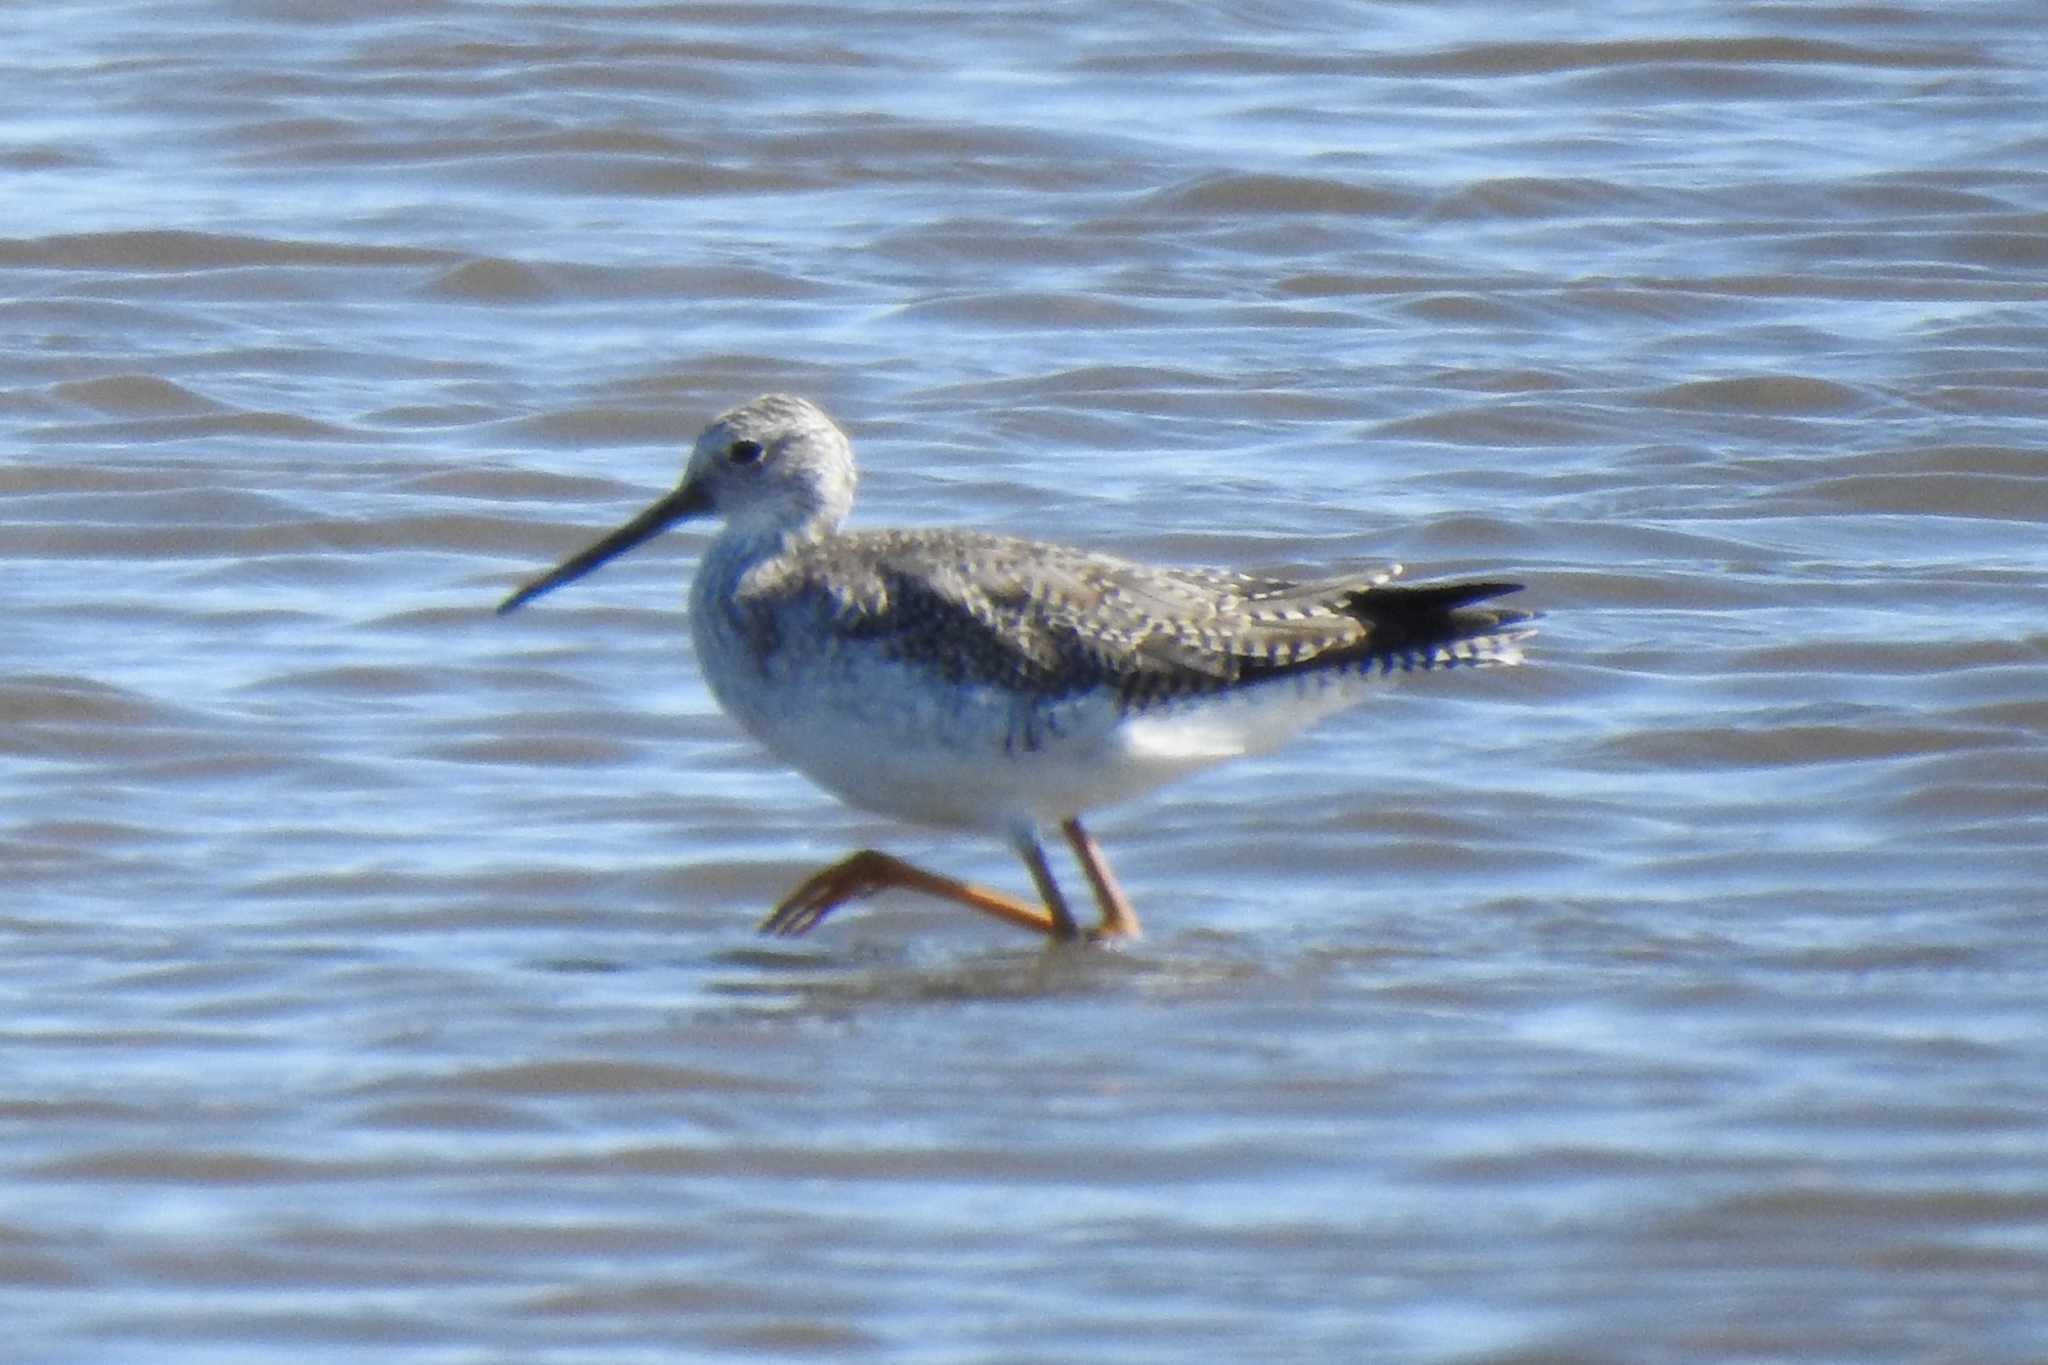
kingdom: Animalia
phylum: Chordata
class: Aves
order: Charadriiformes
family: Scolopacidae
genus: Tringa
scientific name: Tringa melanoleuca
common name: Greater yellowlegs
